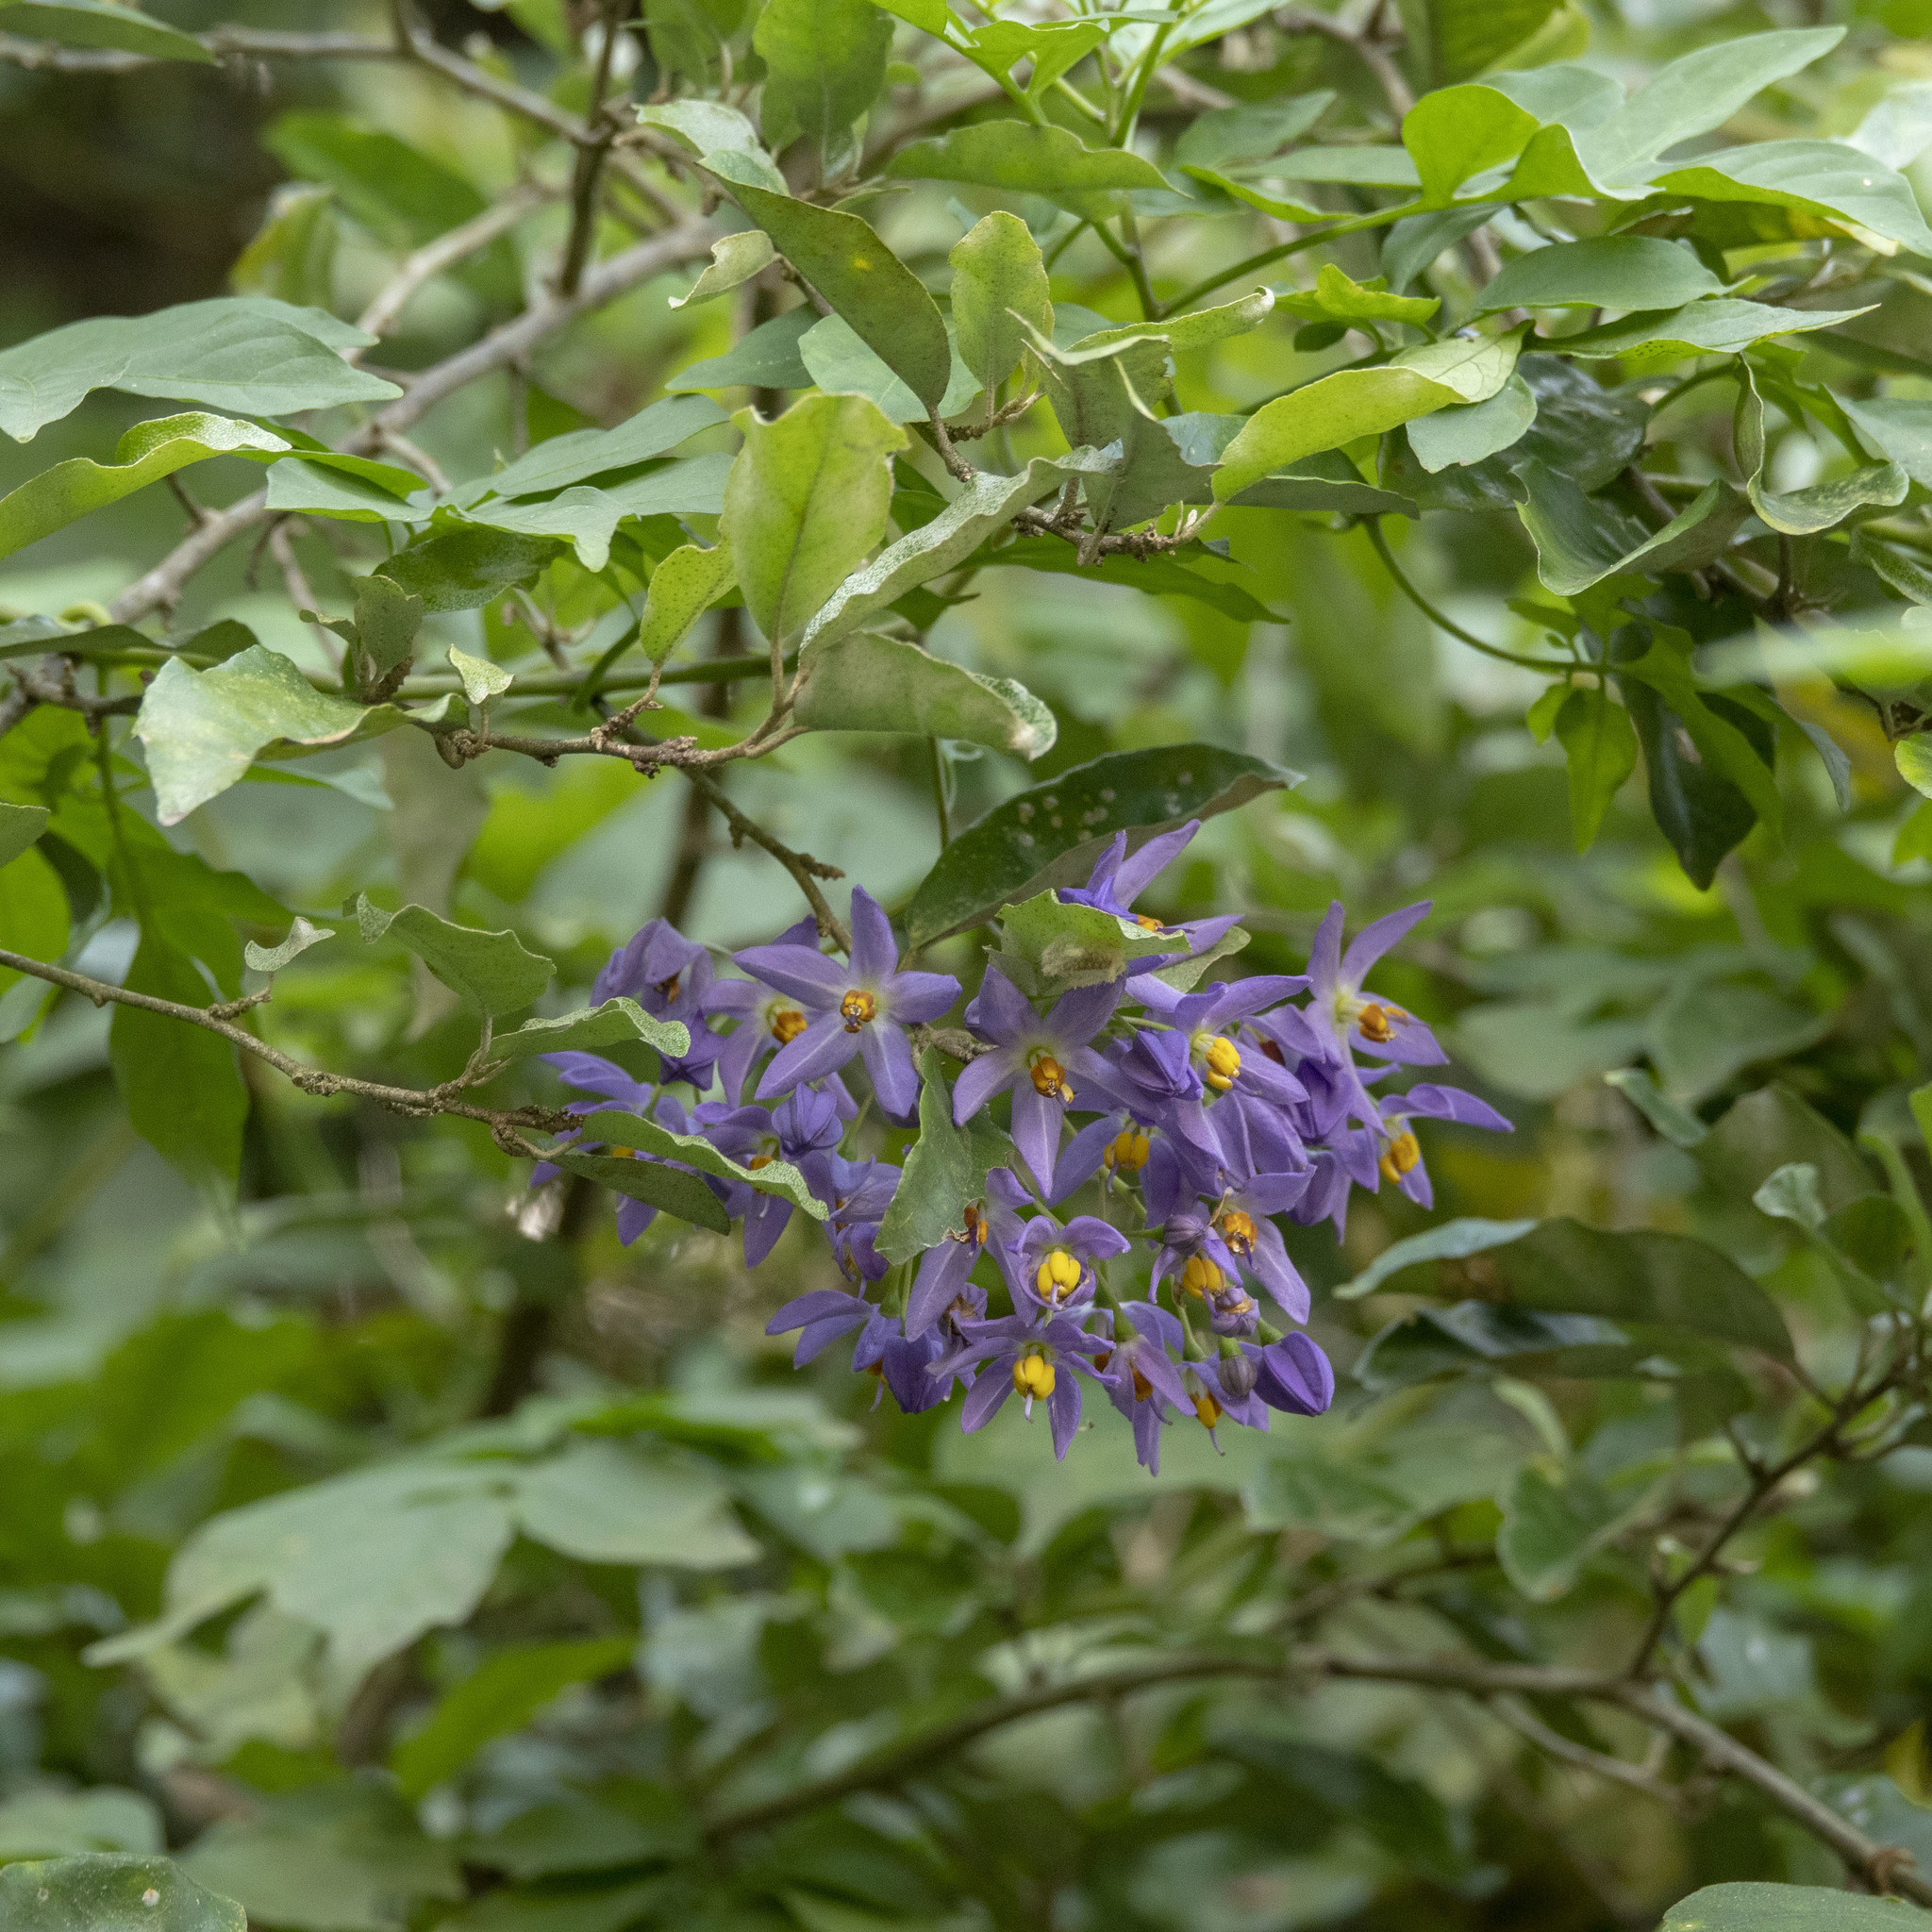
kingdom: Plantae
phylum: Tracheophyta
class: Magnoliopsida
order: Solanales
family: Solanaceae
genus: Solanum
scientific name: Solanum seaforthianum
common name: Brazilian nightshade
